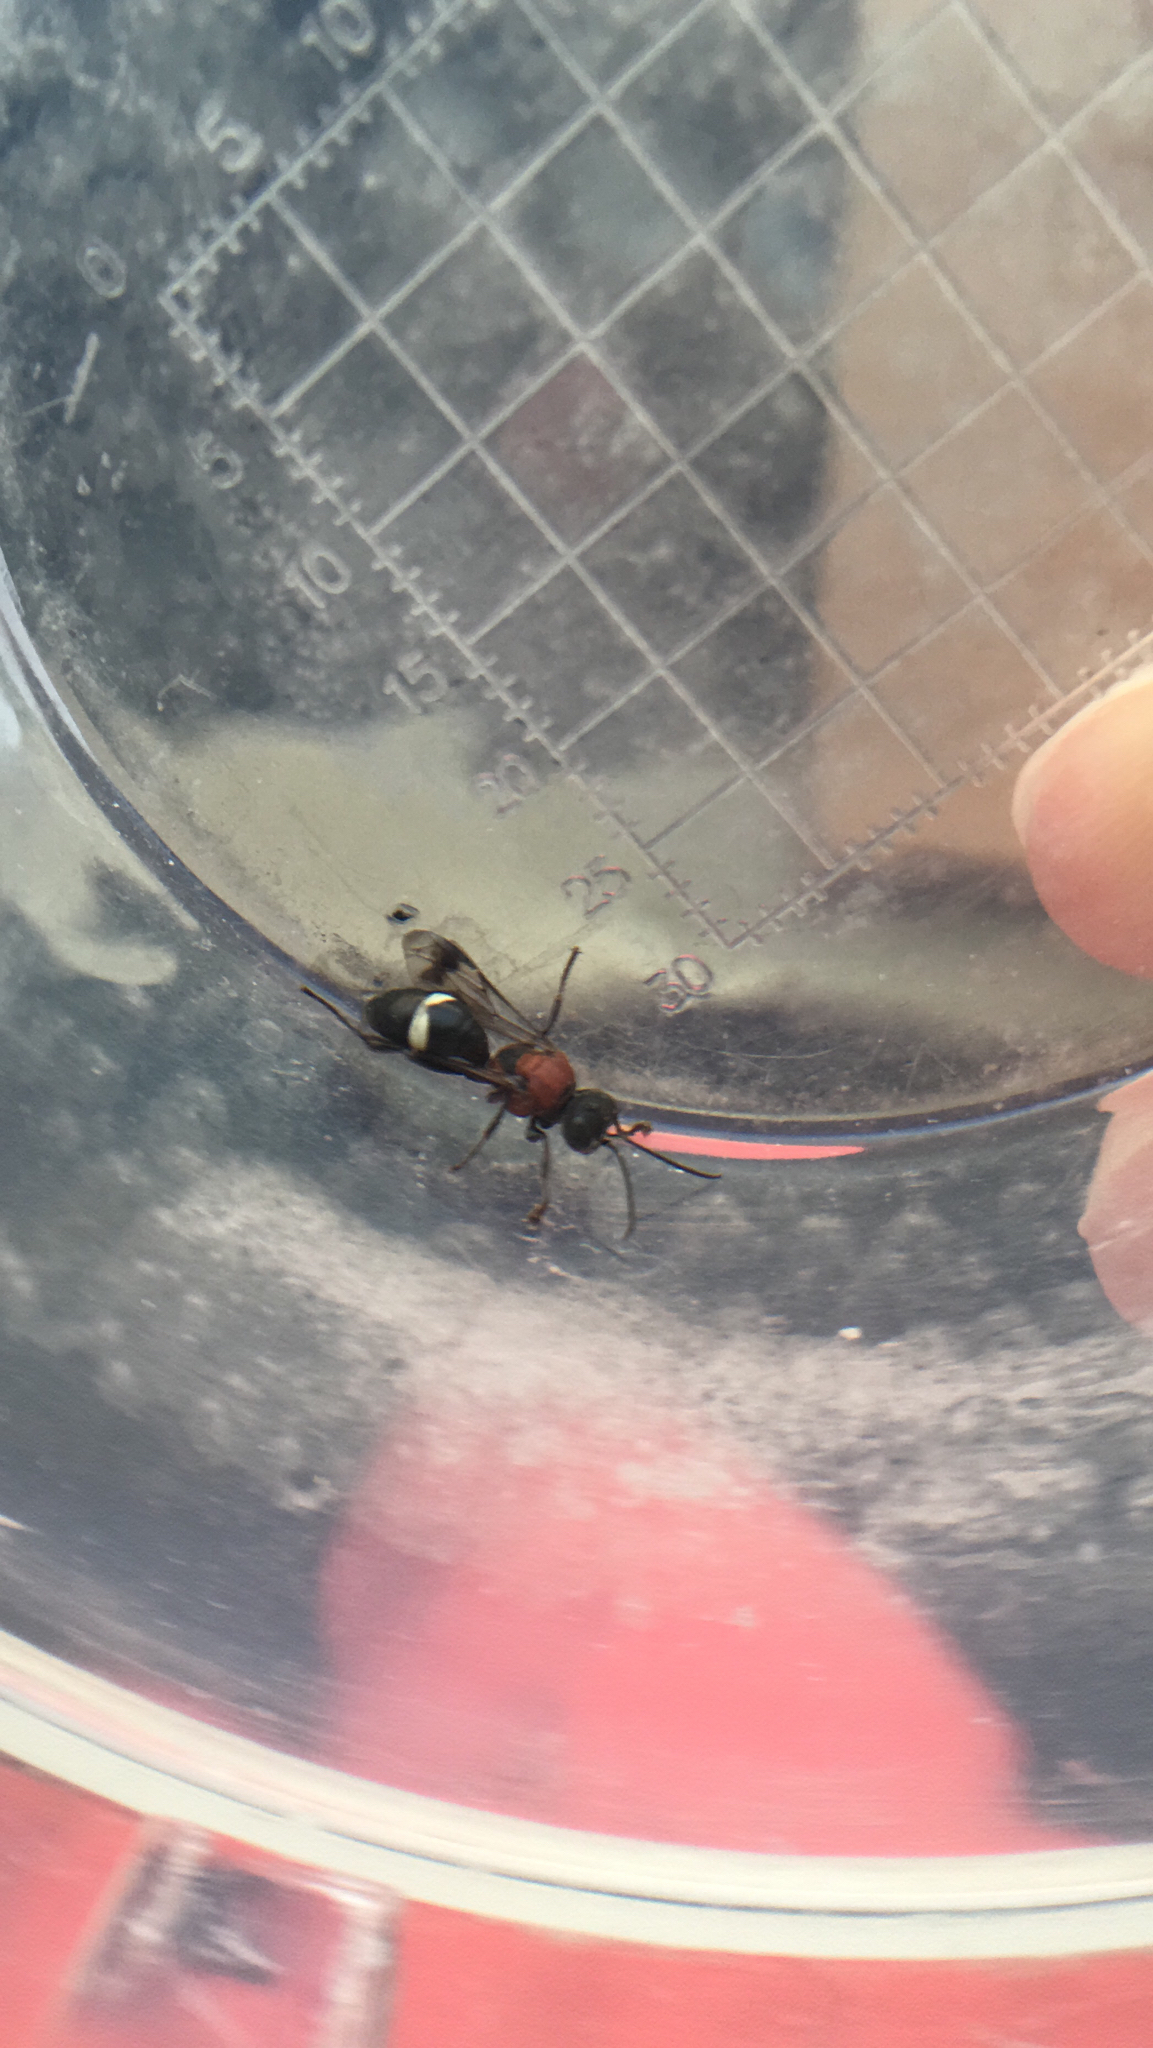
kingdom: Animalia
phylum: Arthropoda
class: Insecta
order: Hymenoptera
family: Crabronidae
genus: Oryttus
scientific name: Oryttus concinnus
